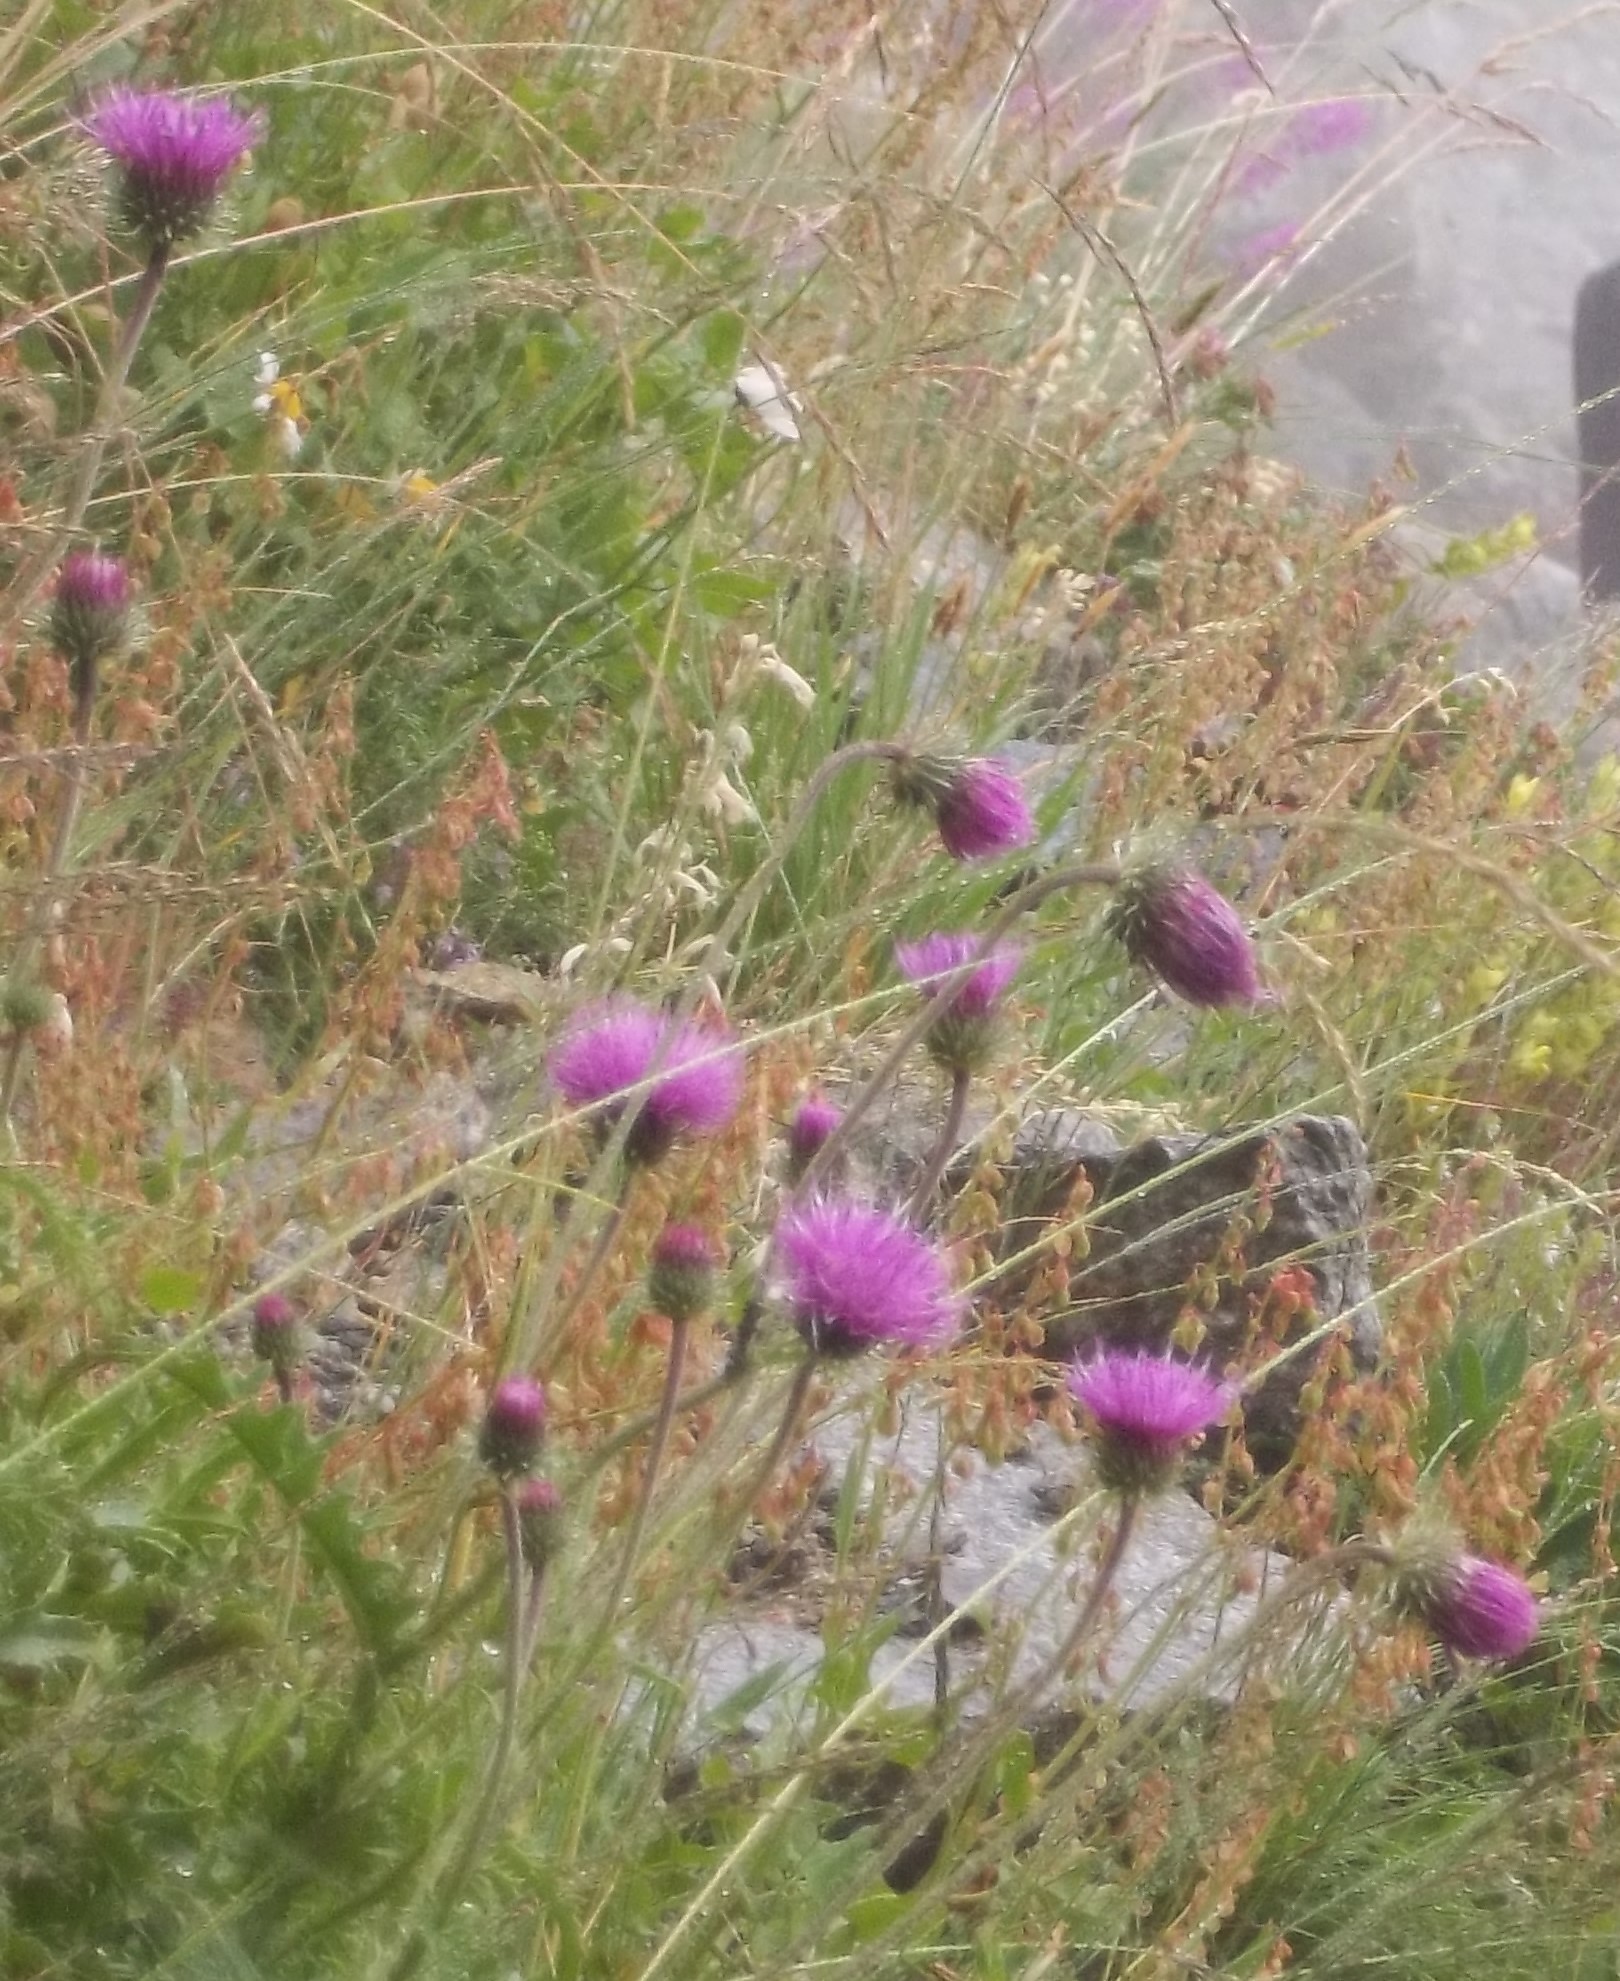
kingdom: Plantae
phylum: Tracheophyta
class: Magnoliopsida
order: Asterales
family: Asteraceae
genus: Carduus
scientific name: Carduus defloratus
